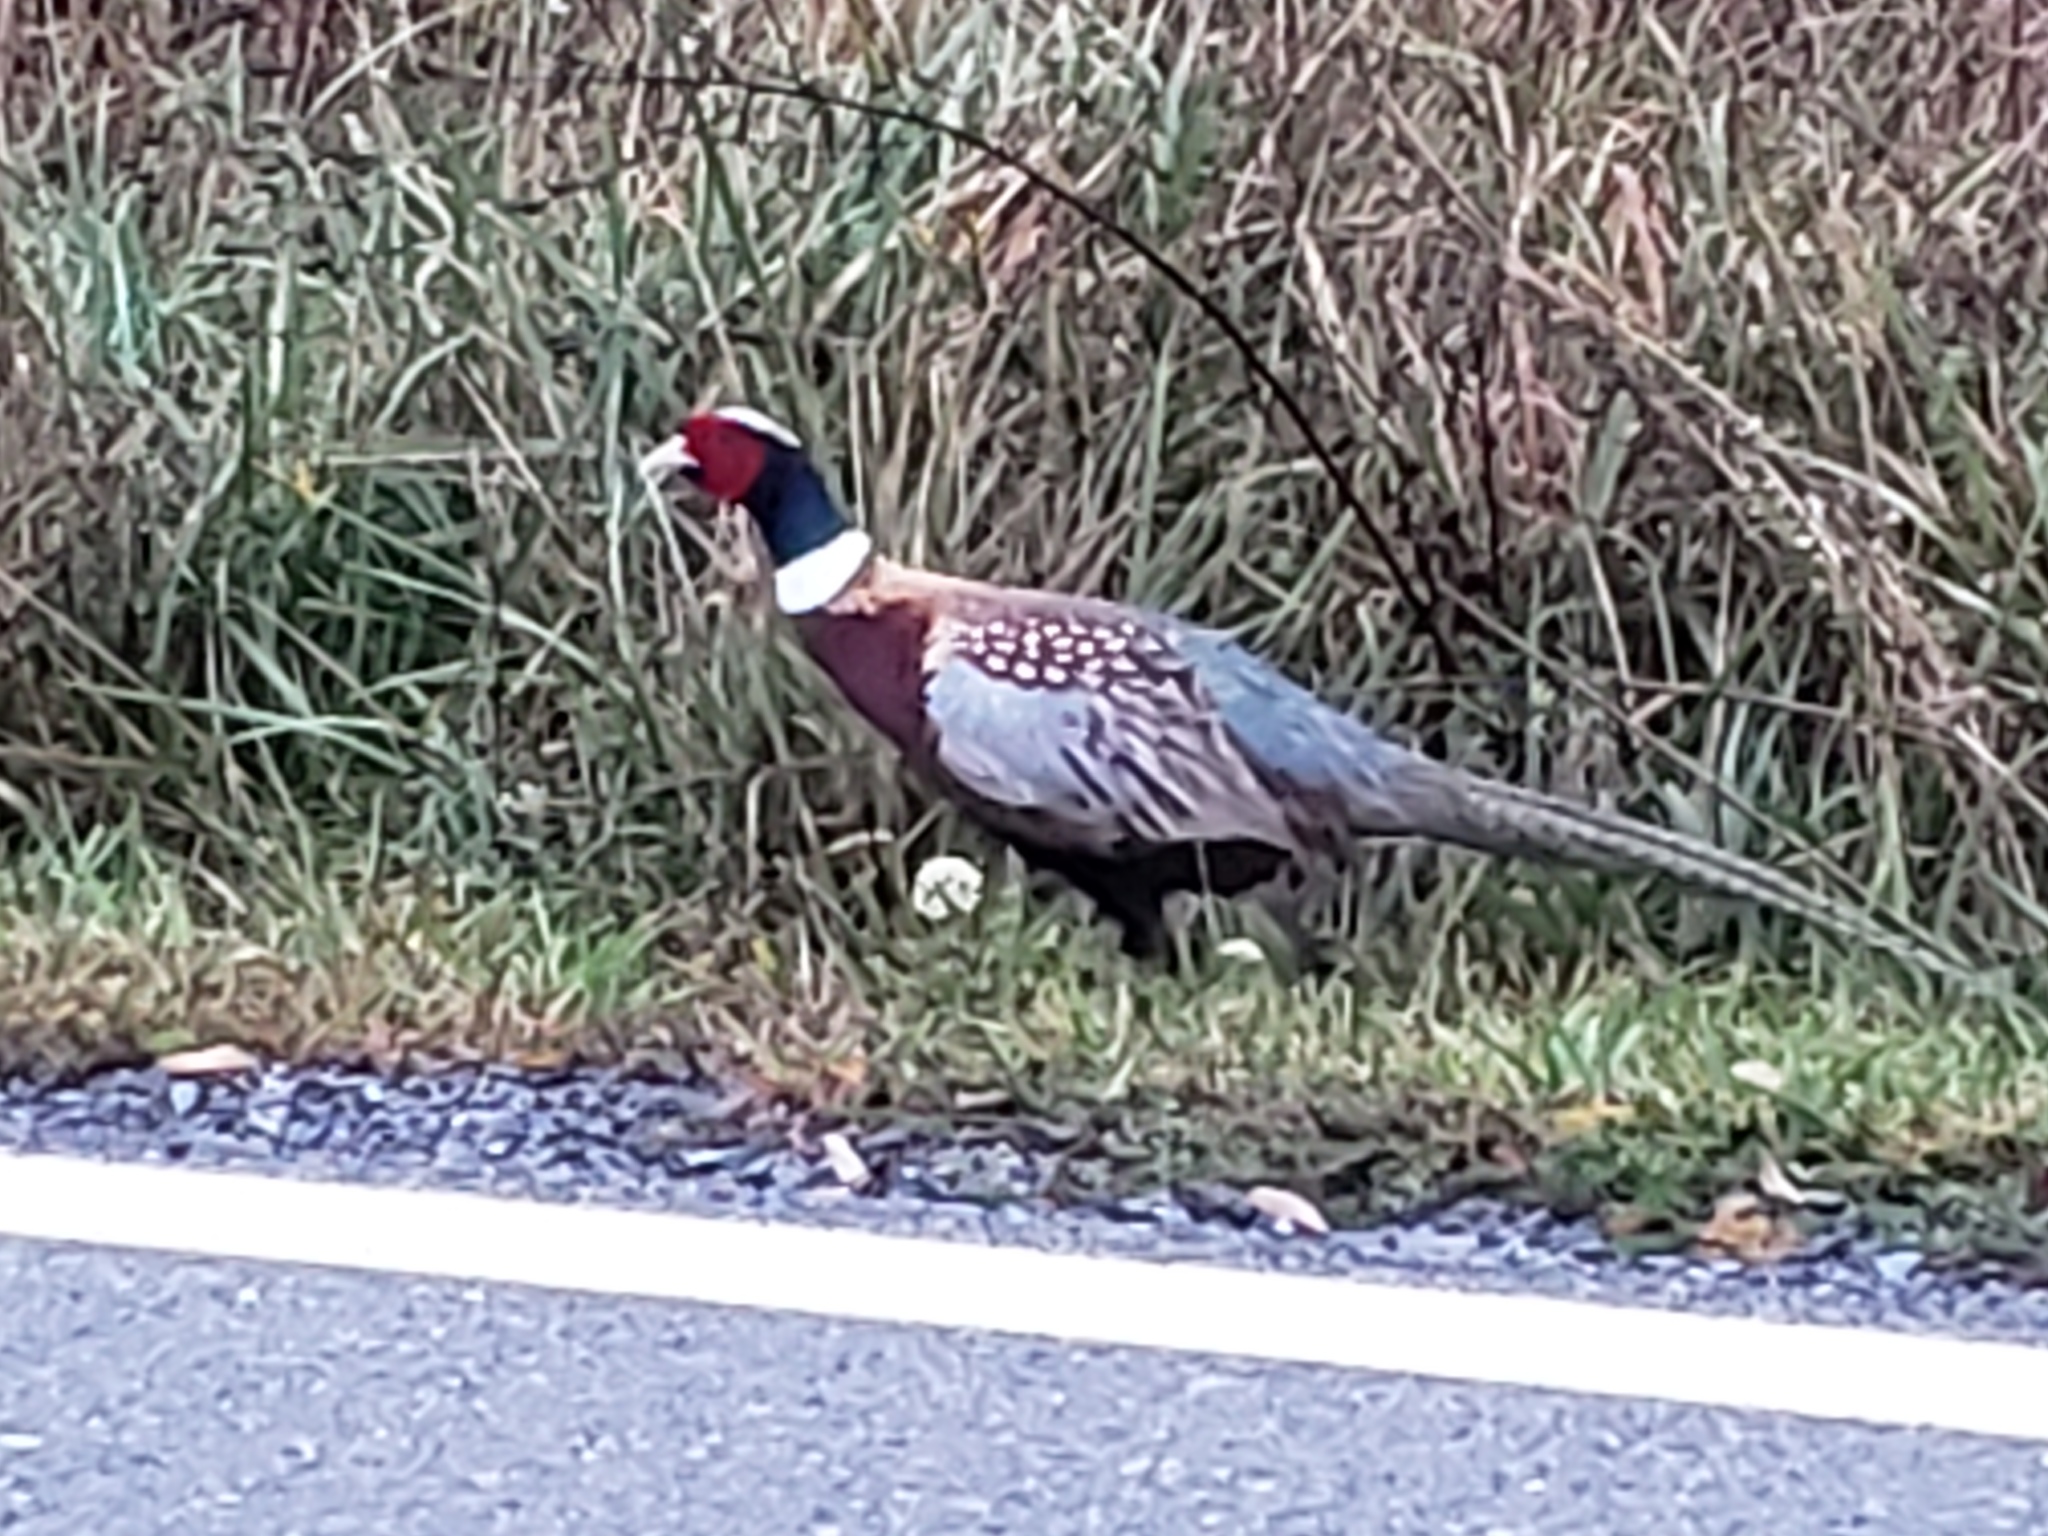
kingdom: Animalia
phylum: Chordata
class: Aves
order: Galliformes
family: Phasianidae
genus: Phasianus
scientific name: Phasianus colchicus
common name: Common pheasant
